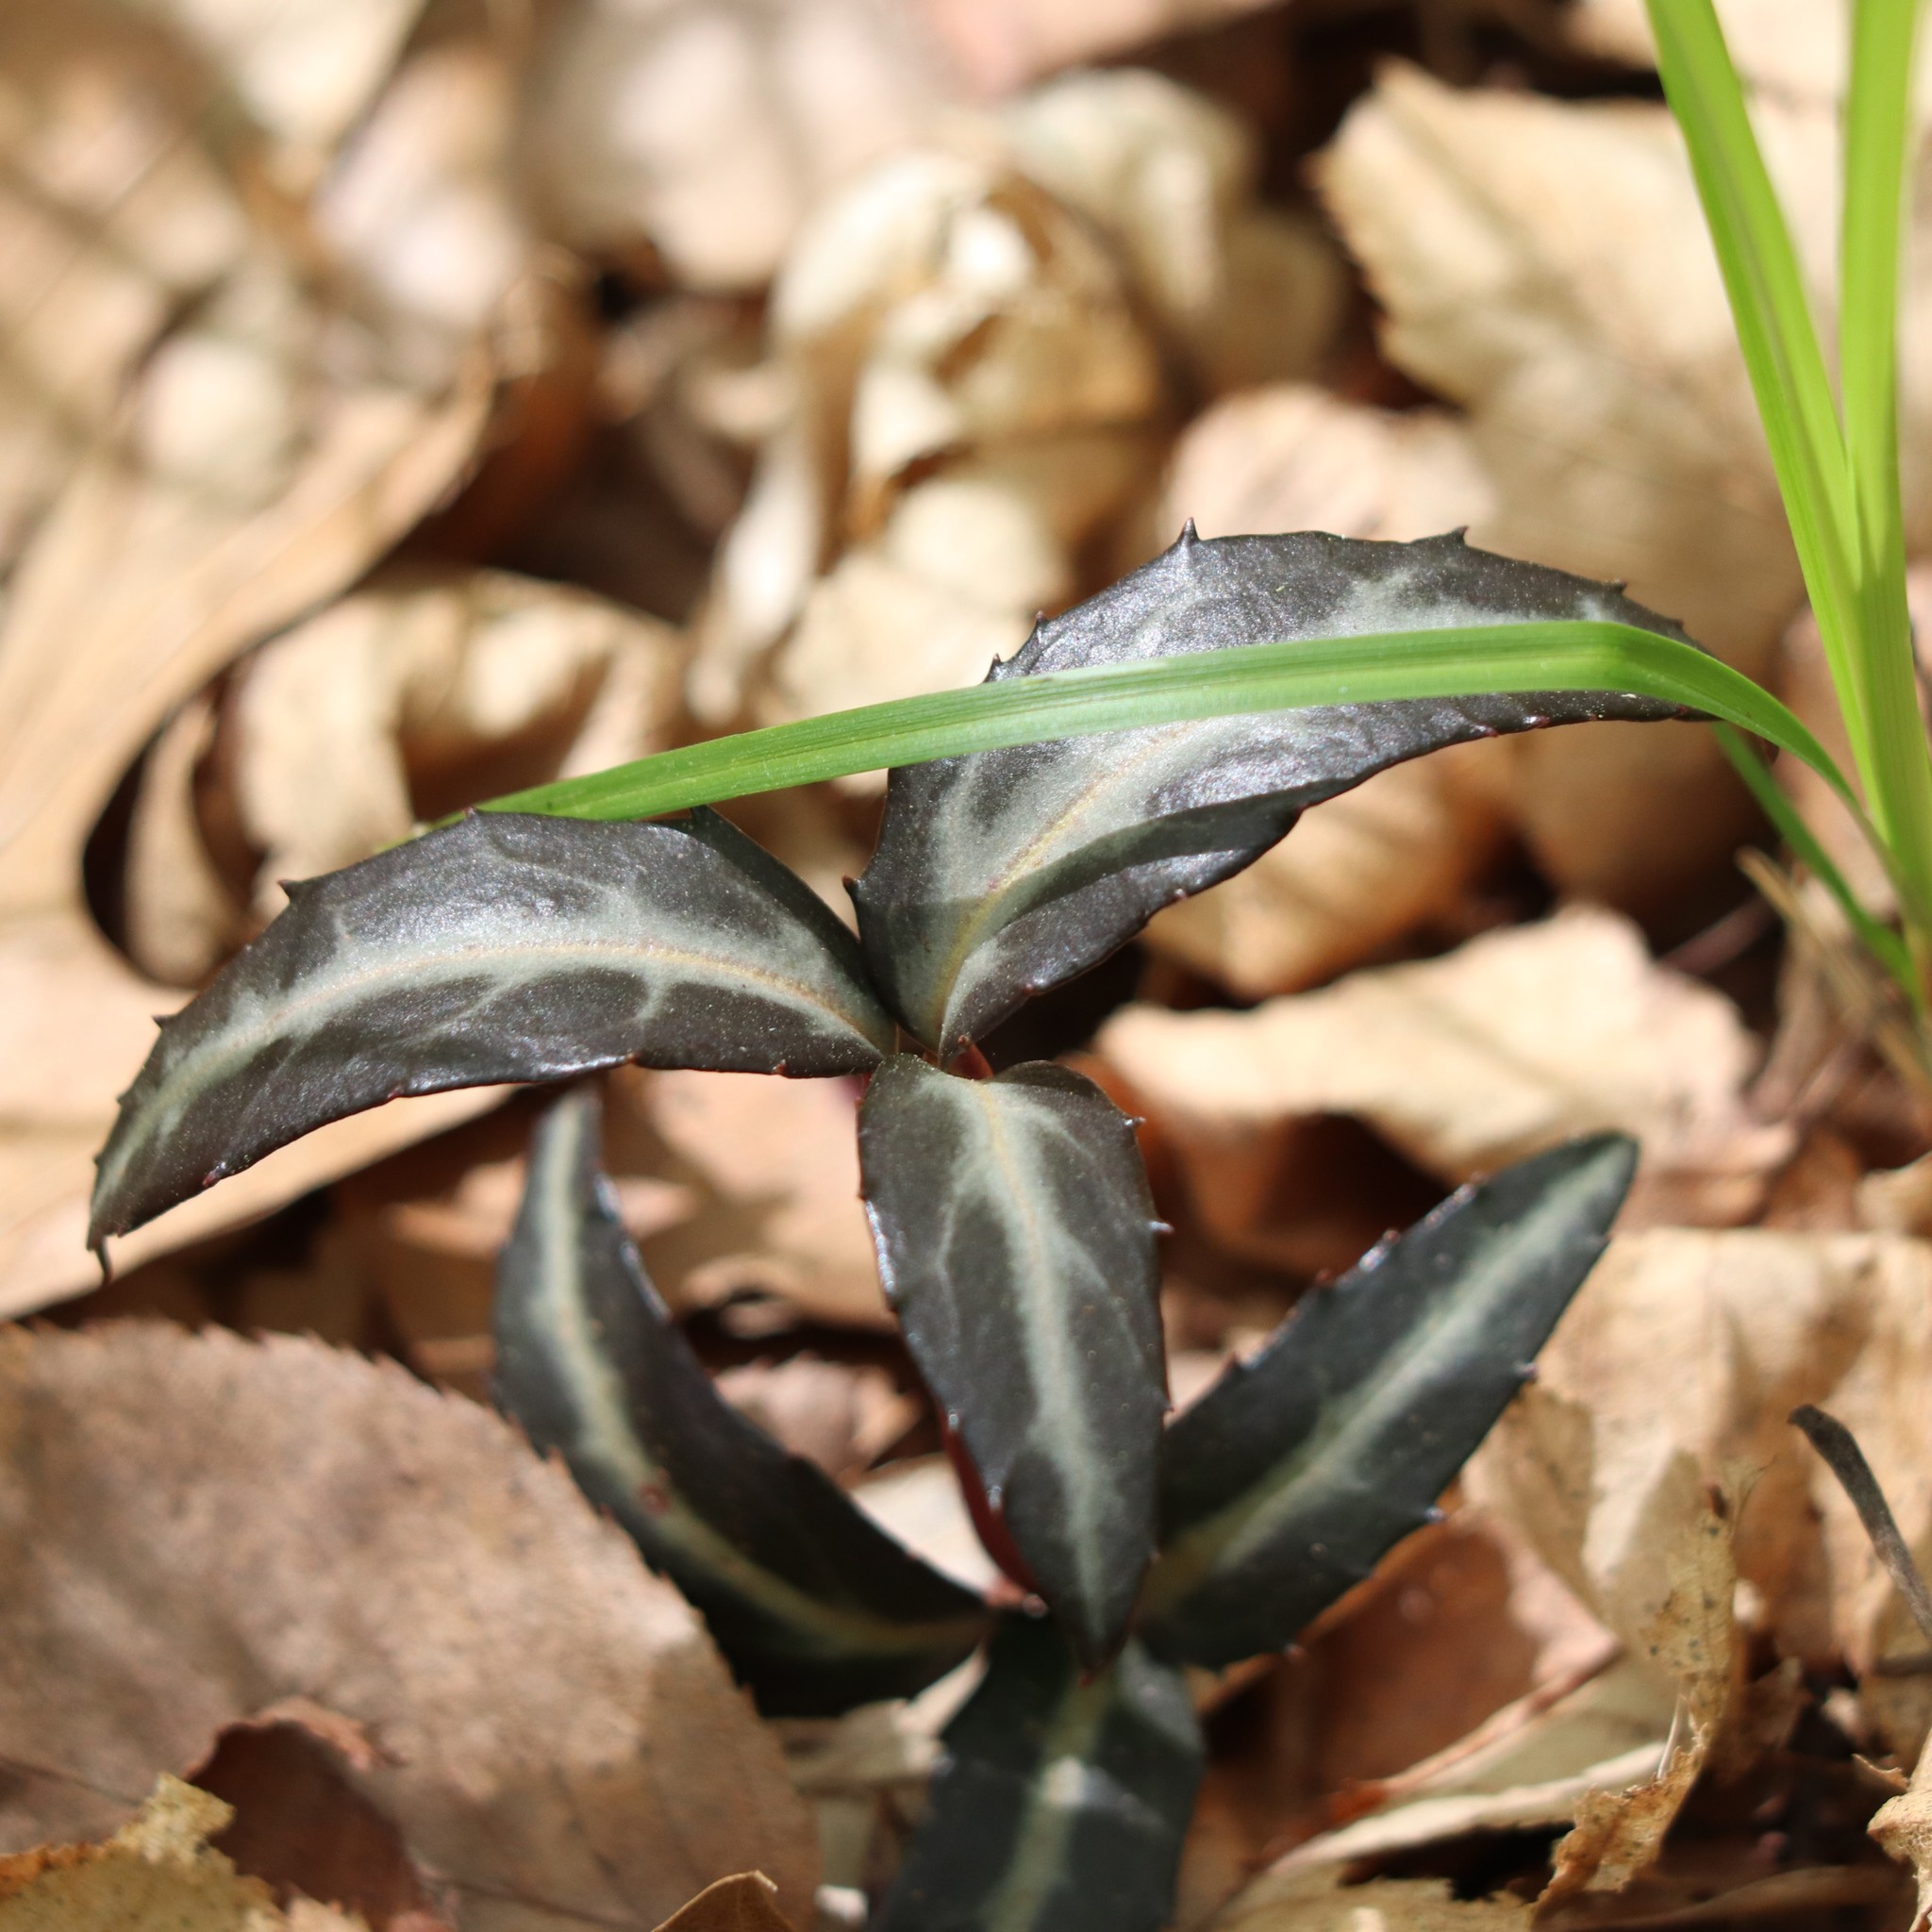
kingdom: Plantae
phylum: Tracheophyta
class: Magnoliopsida
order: Ericales
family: Ericaceae
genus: Chimaphila
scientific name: Chimaphila maculata
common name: Spotted pipsissewa
